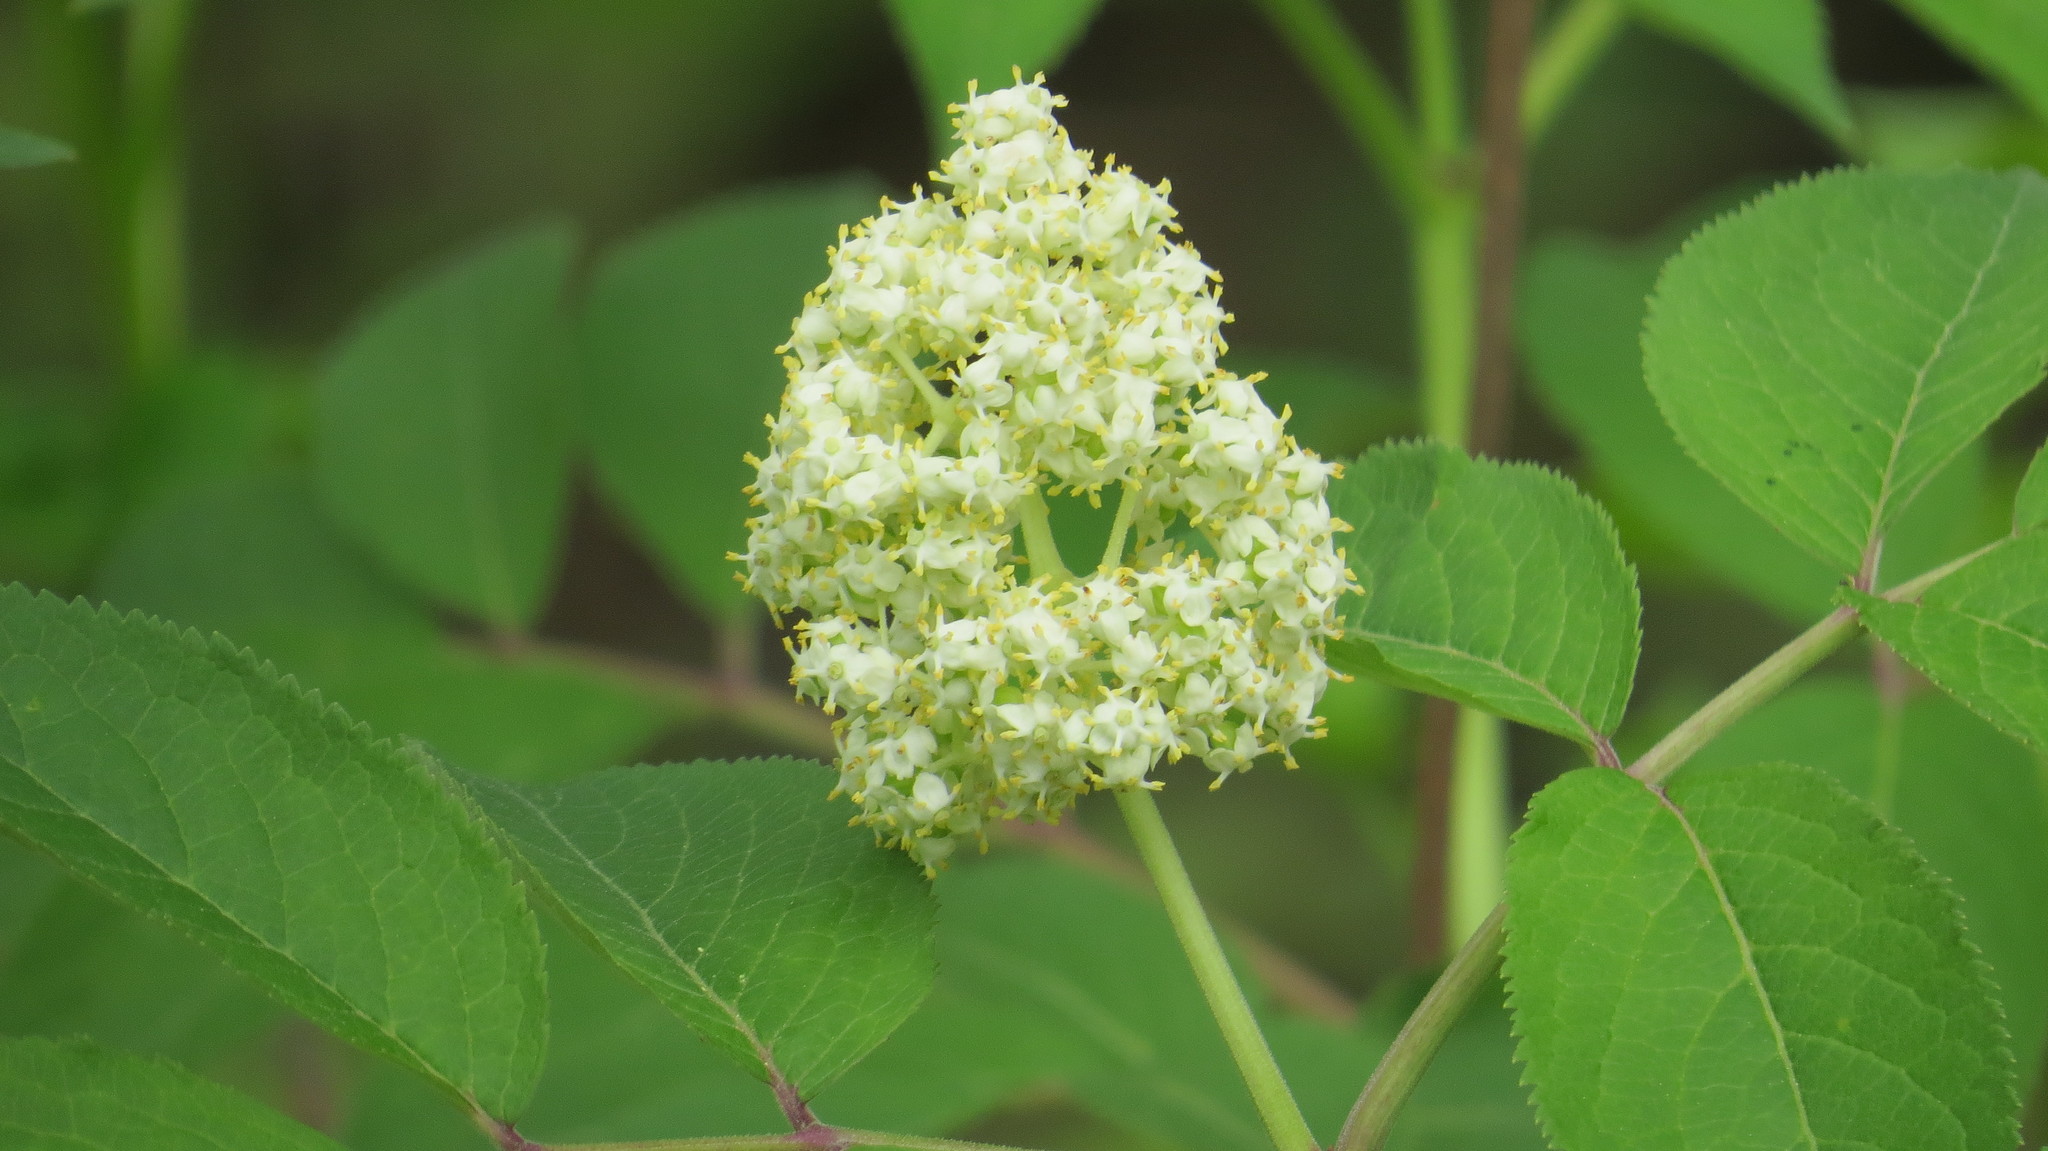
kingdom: Plantae
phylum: Tracheophyta
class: Magnoliopsida
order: Dipsacales
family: Viburnaceae
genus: Sambucus
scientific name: Sambucus racemosa
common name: Red-berried elder
